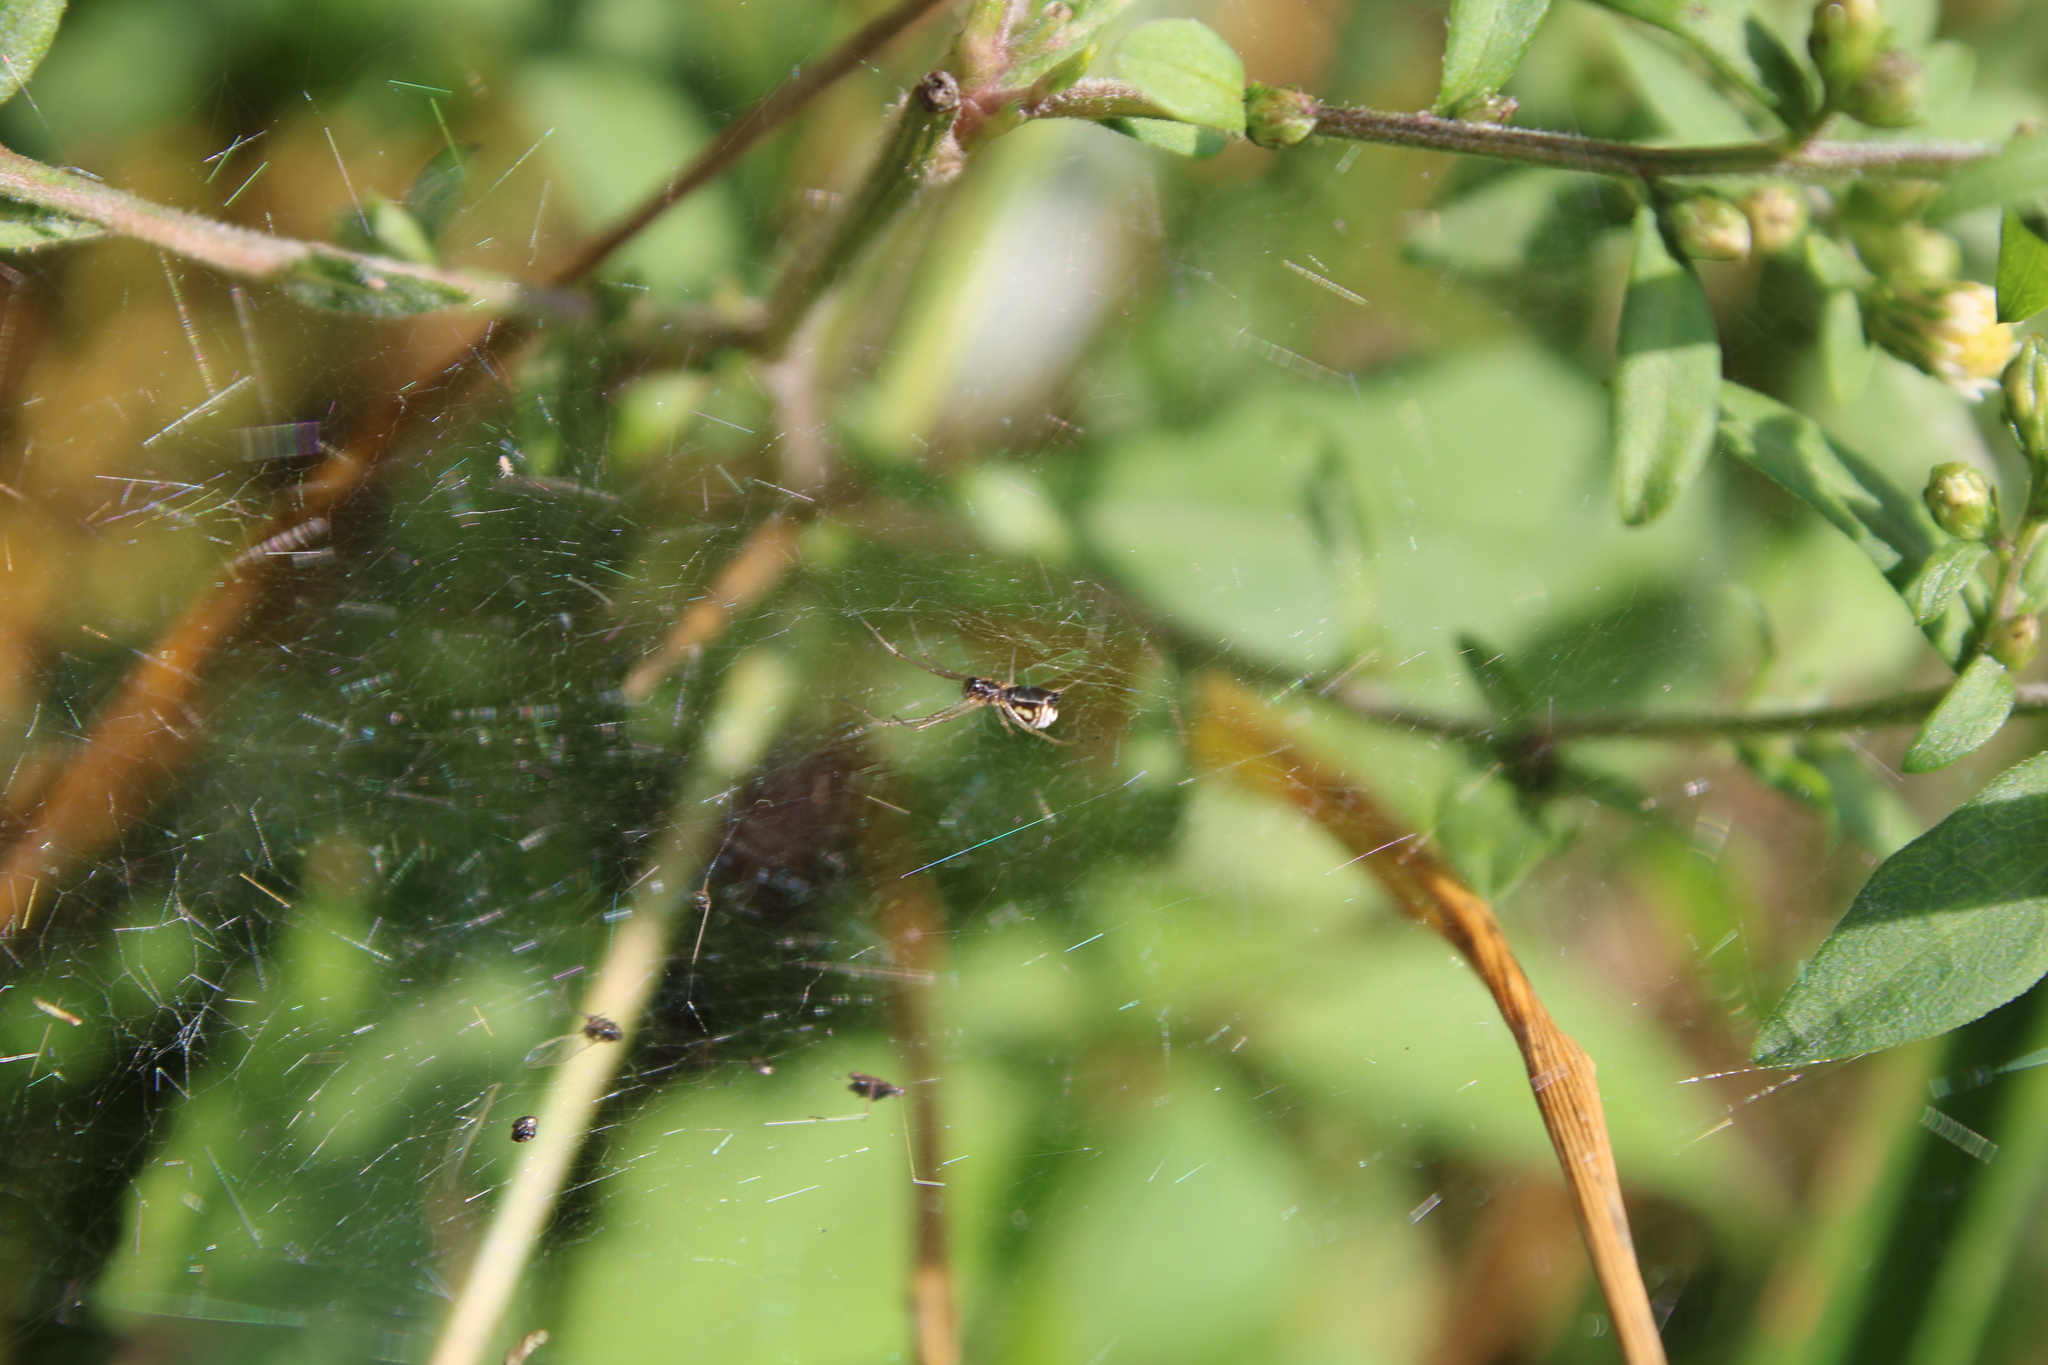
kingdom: Animalia
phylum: Arthropoda
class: Arachnida
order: Araneae
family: Linyphiidae
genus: Frontinella
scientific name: Frontinella pyramitela
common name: Bowl-and-doily spider
